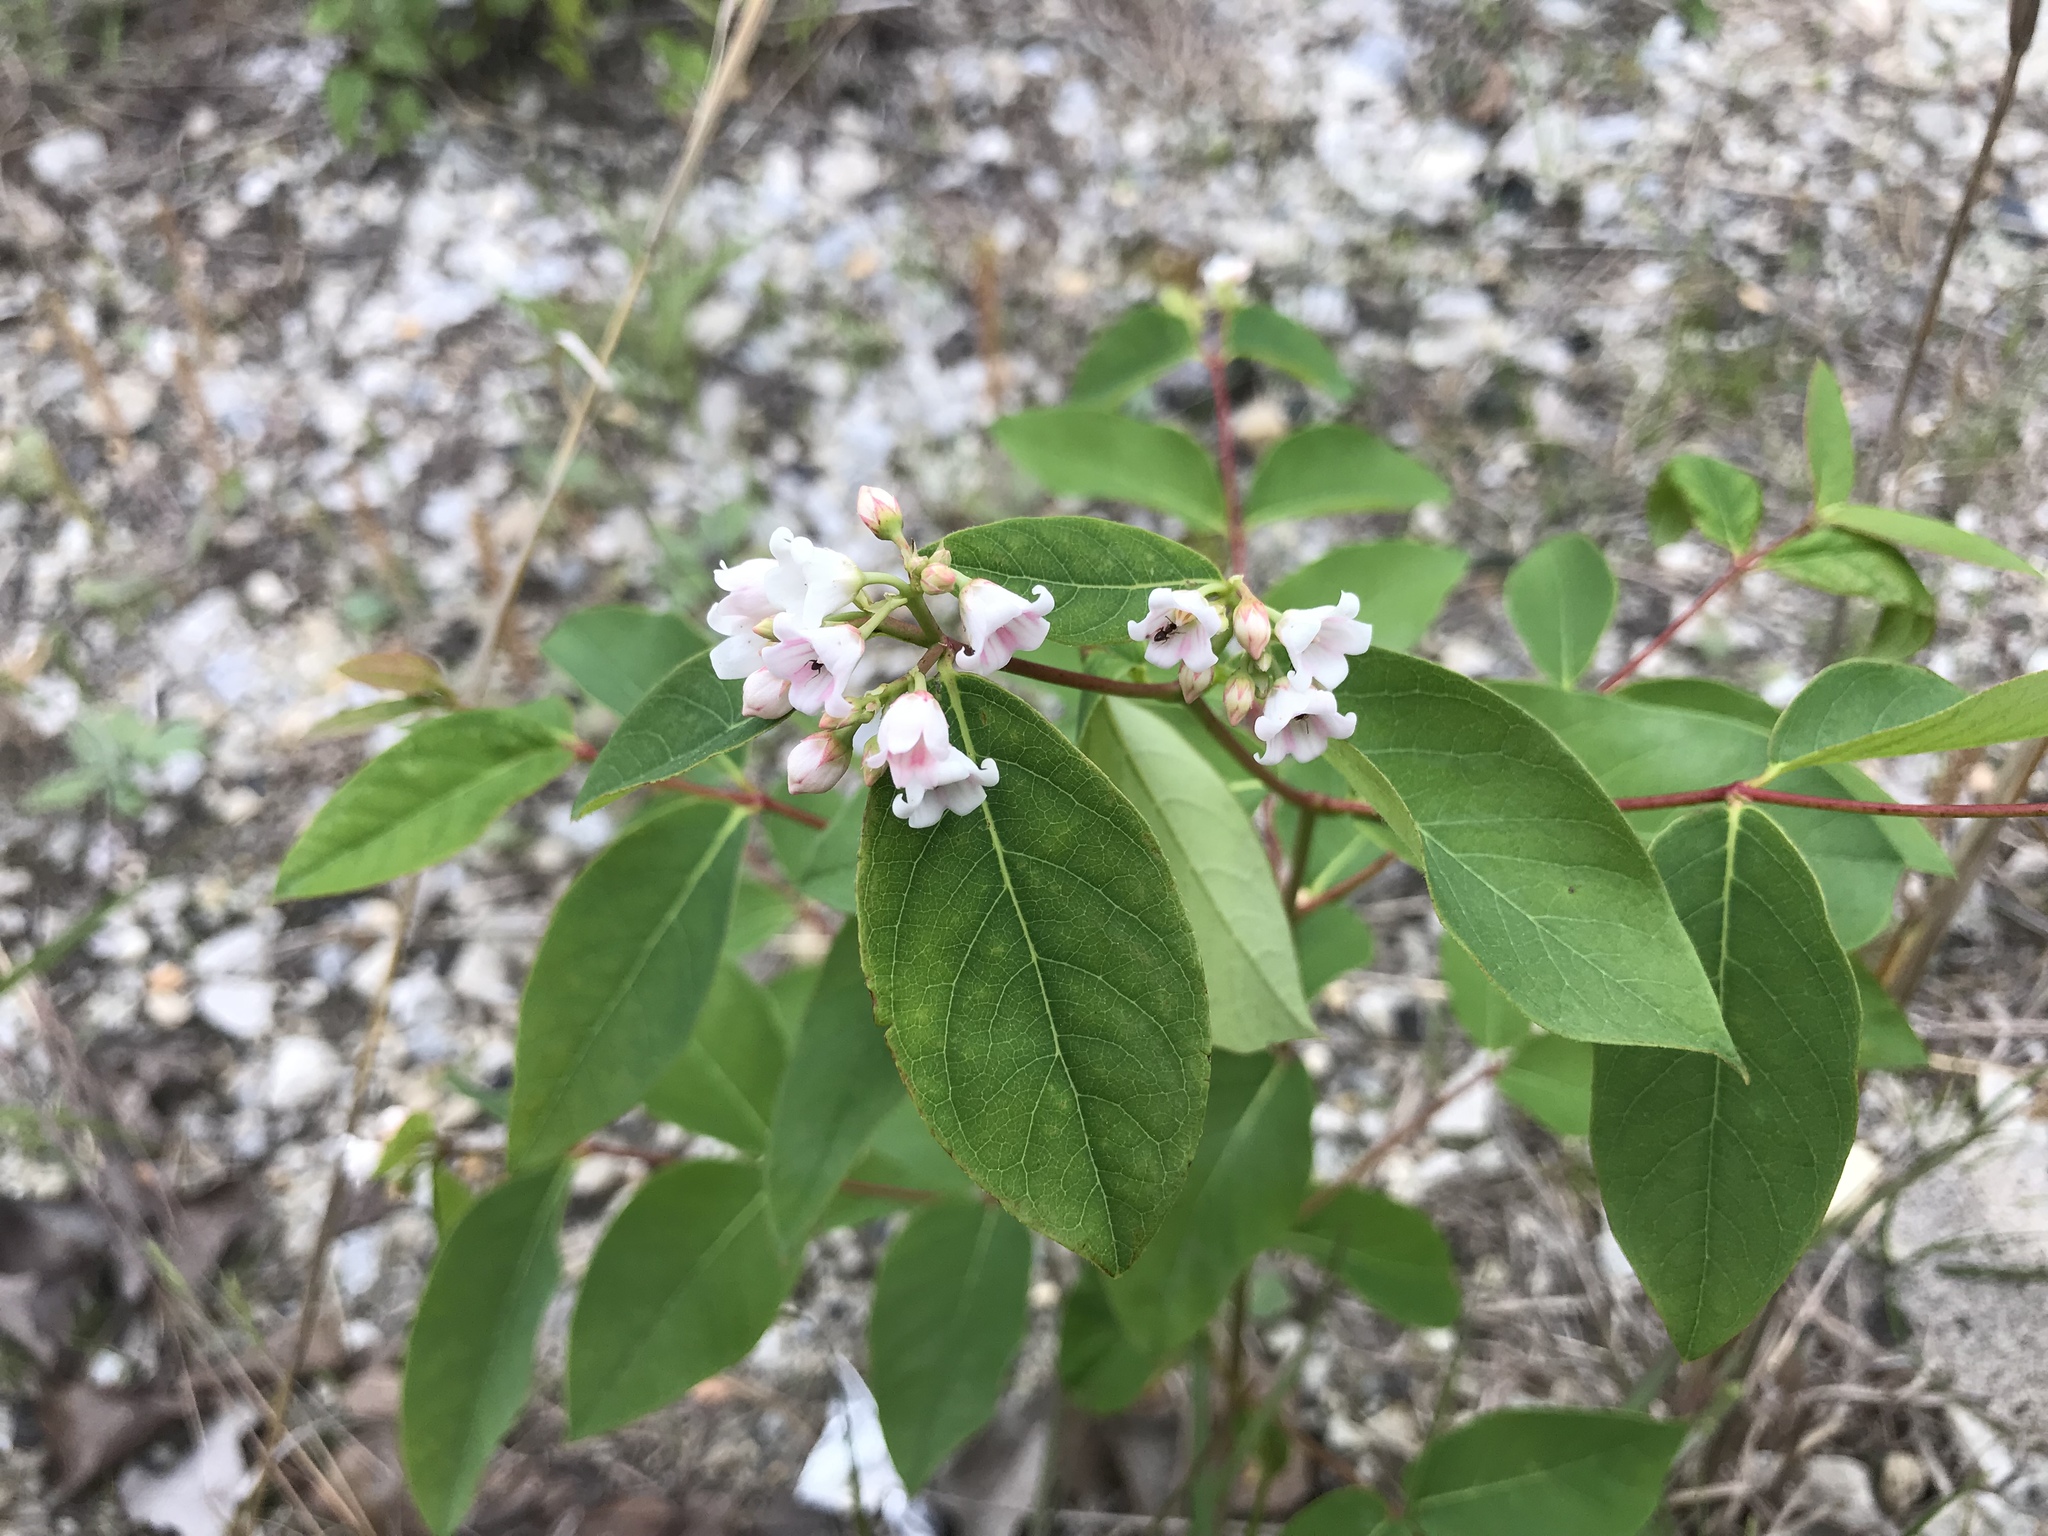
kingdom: Plantae
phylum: Tracheophyta
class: Magnoliopsida
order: Gentianales
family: Apocynaceae
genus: Apocynum
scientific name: Apocynum androsaemifolium
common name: Spreading dogbane
